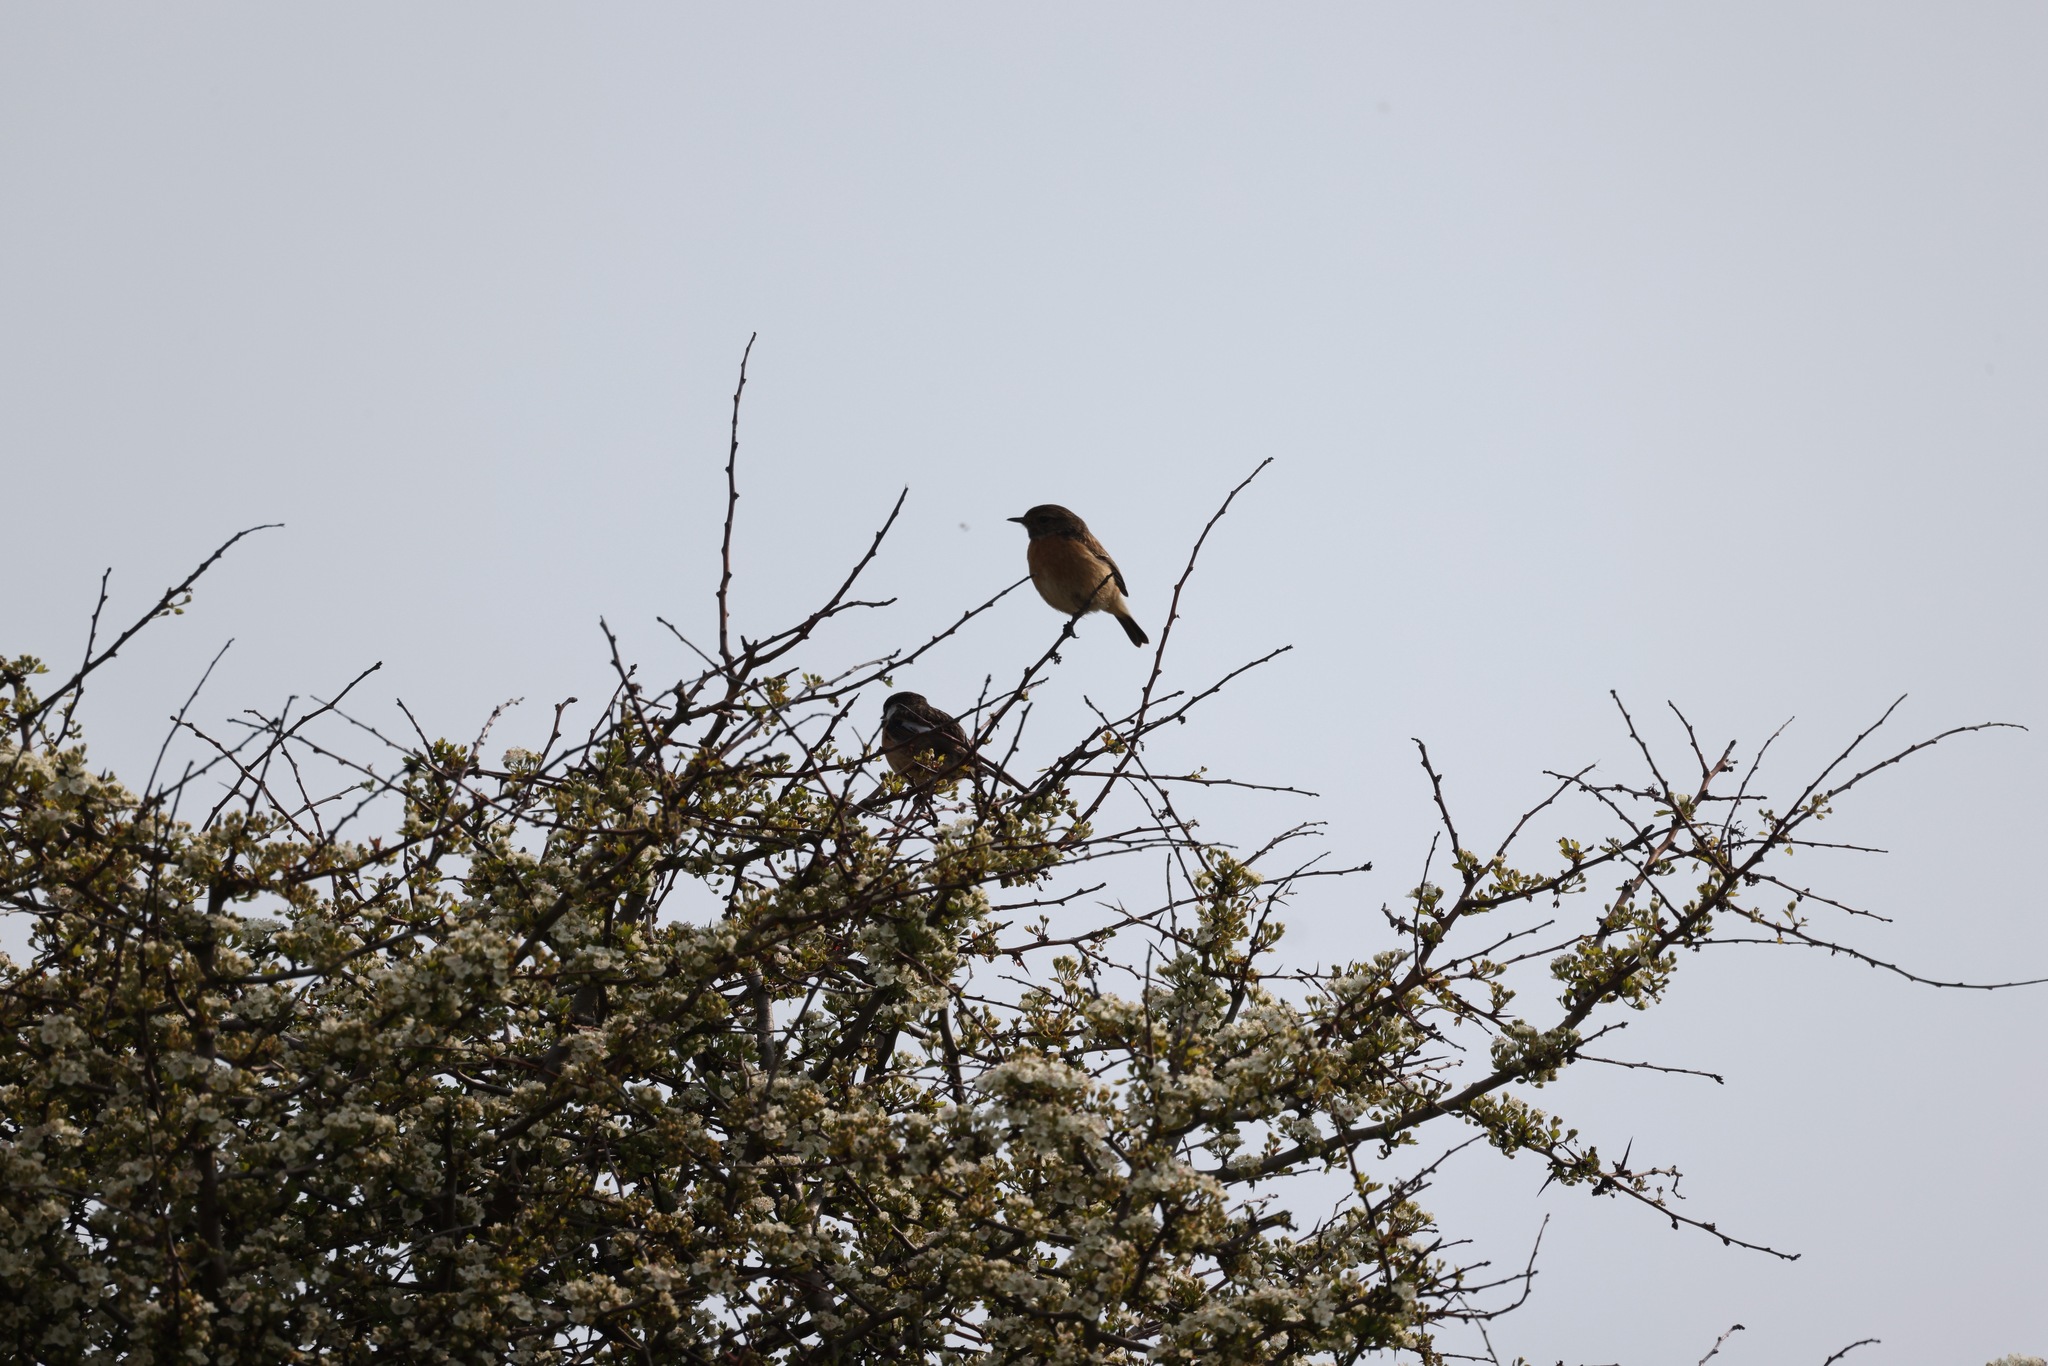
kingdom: Animalia
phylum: Chordata
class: Aves
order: Passeriformes
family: Muscicapidae
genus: Saxicola
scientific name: Saxicola rubicola
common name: European stonechat
